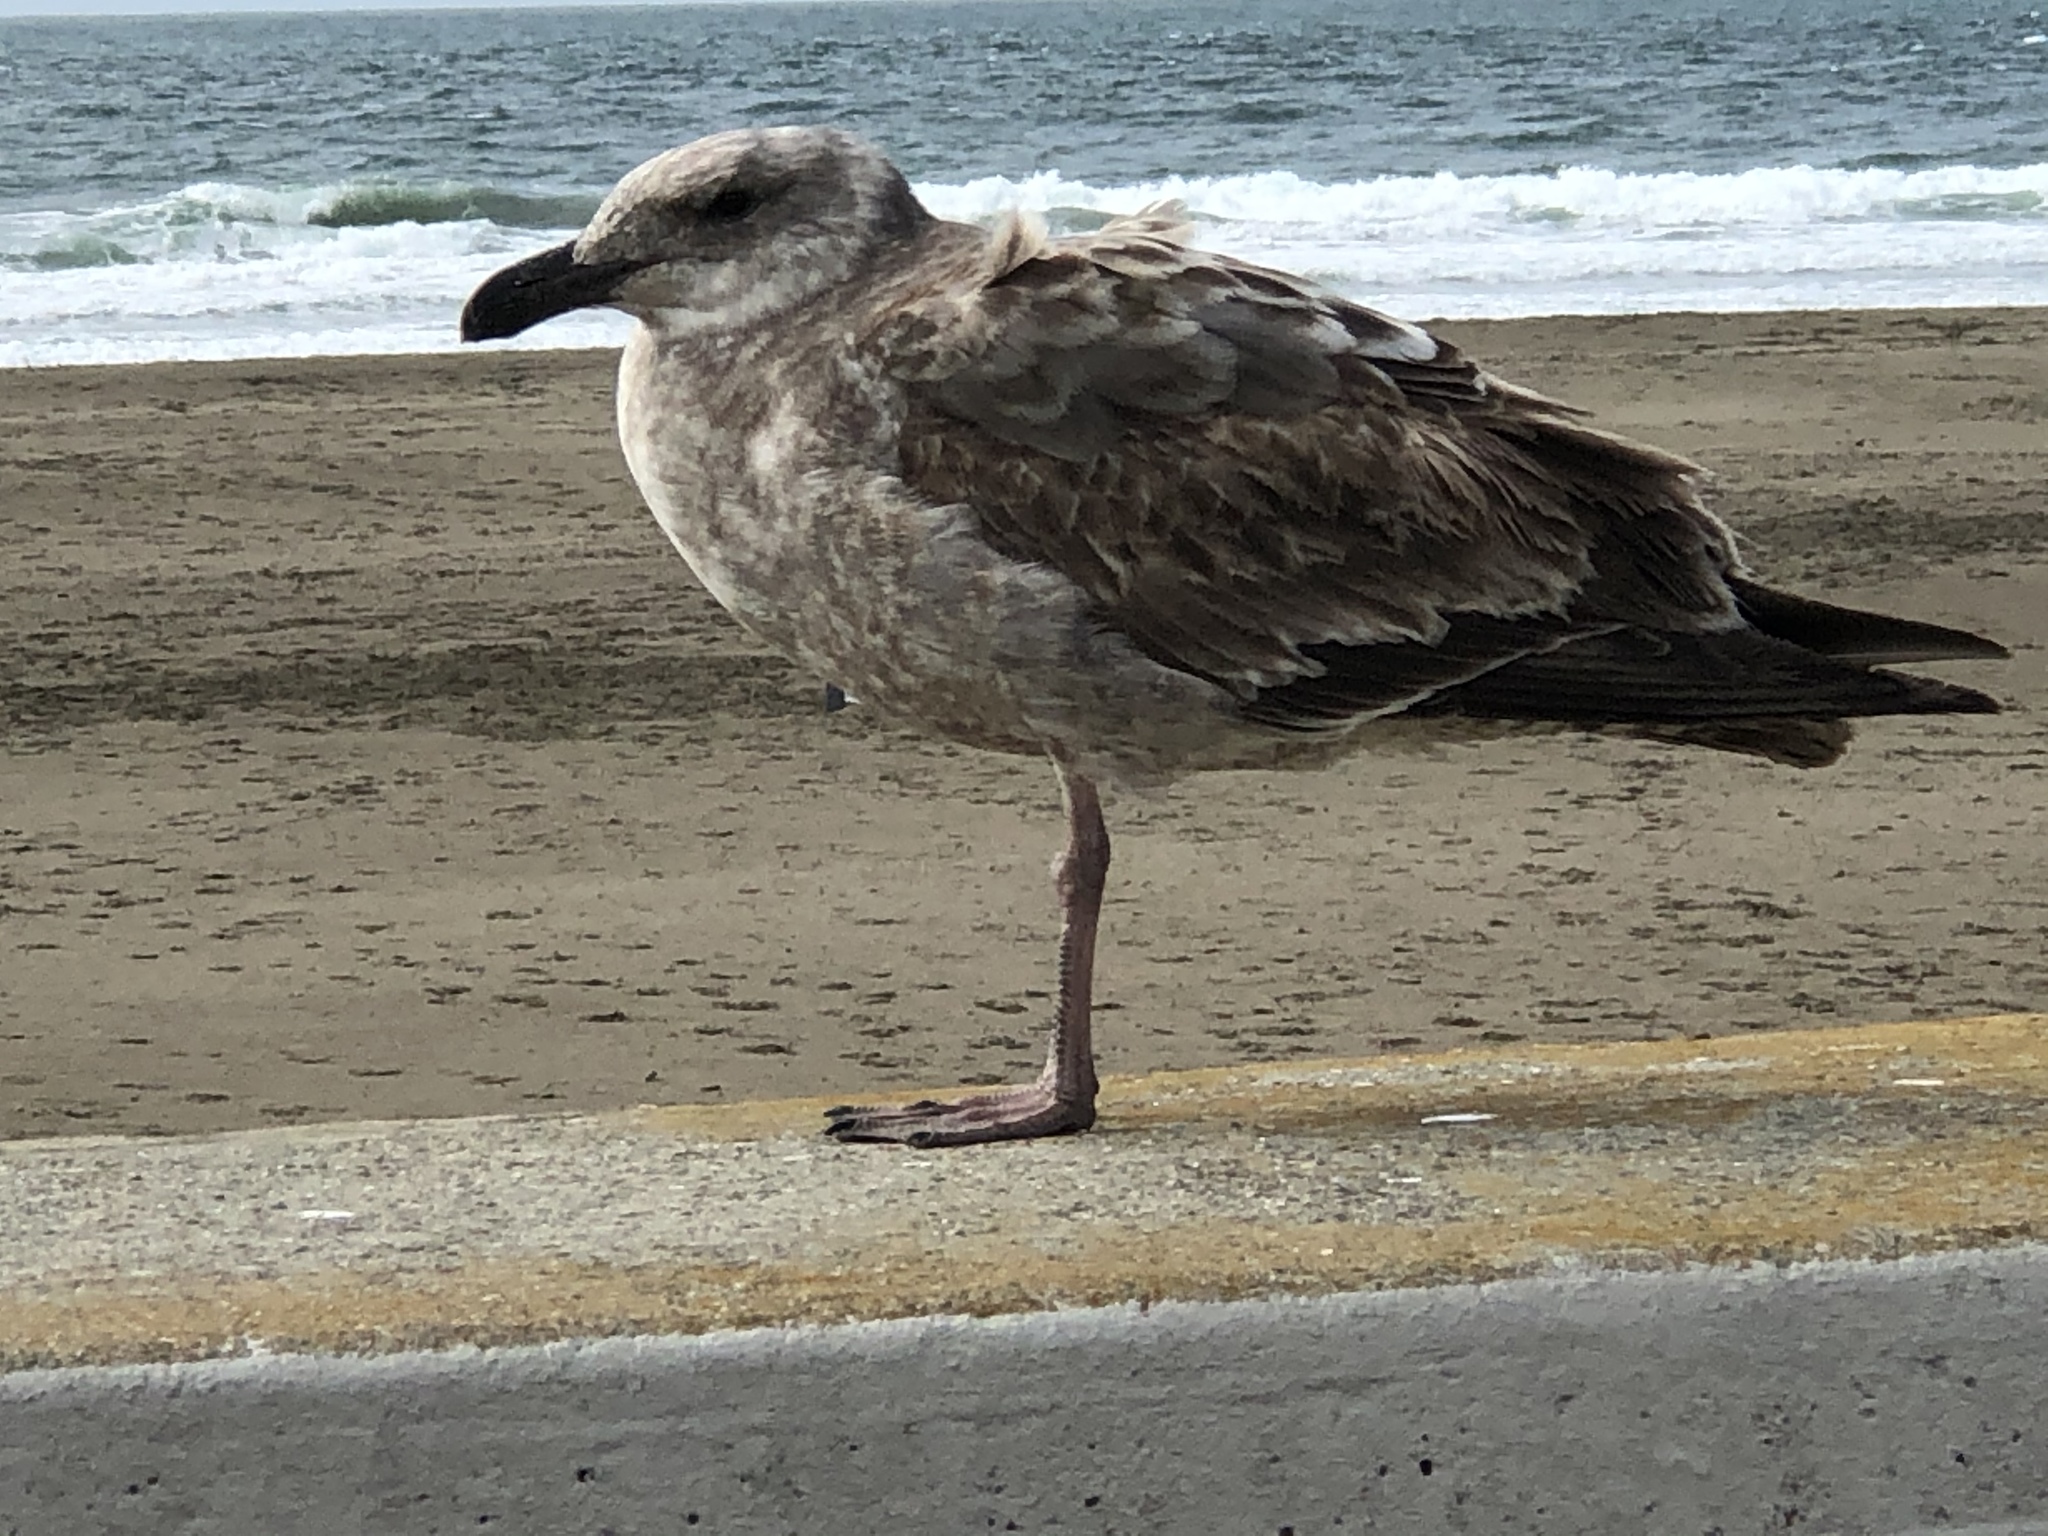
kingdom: Animalia
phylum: Chordata
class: Aves
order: Charadriiformes
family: Laridae
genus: Larus
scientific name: Larus occidentalis
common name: Western gull
